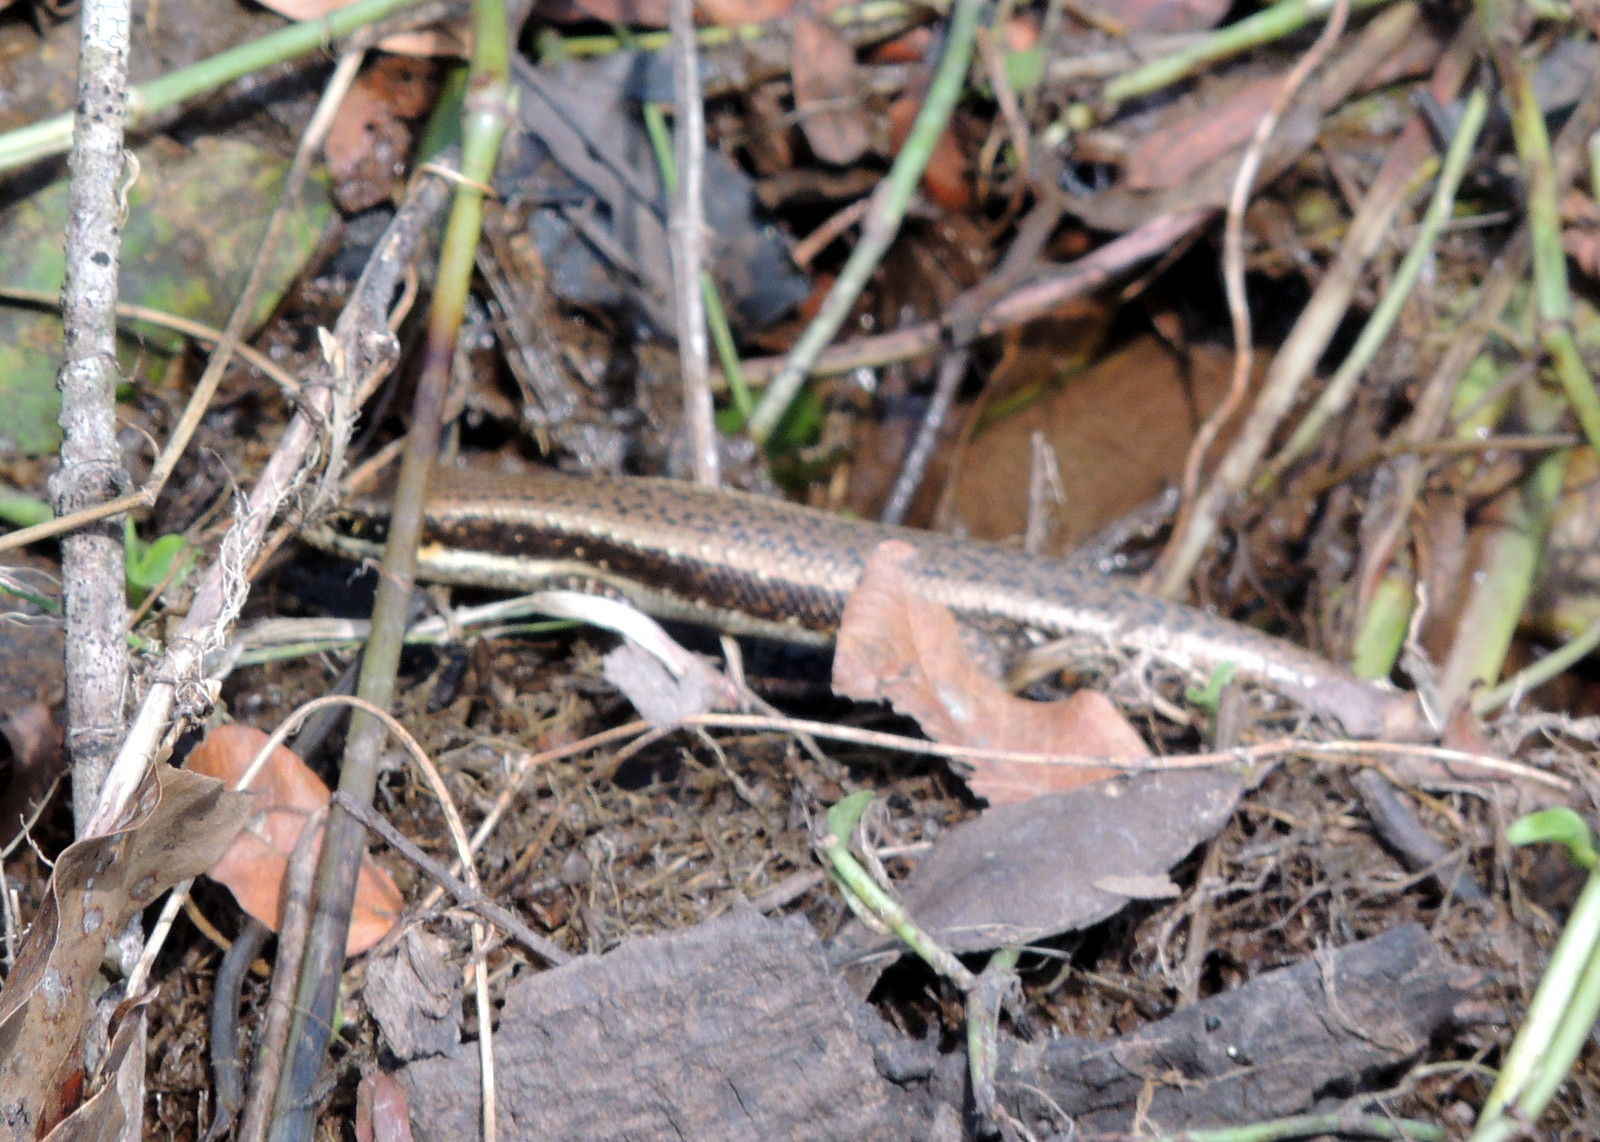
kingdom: Animalia
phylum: Chordata
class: Squamata
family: Scincidae
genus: Trachylepis
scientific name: Trachylepis maculilabris
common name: Speckle-lipped mabuya
